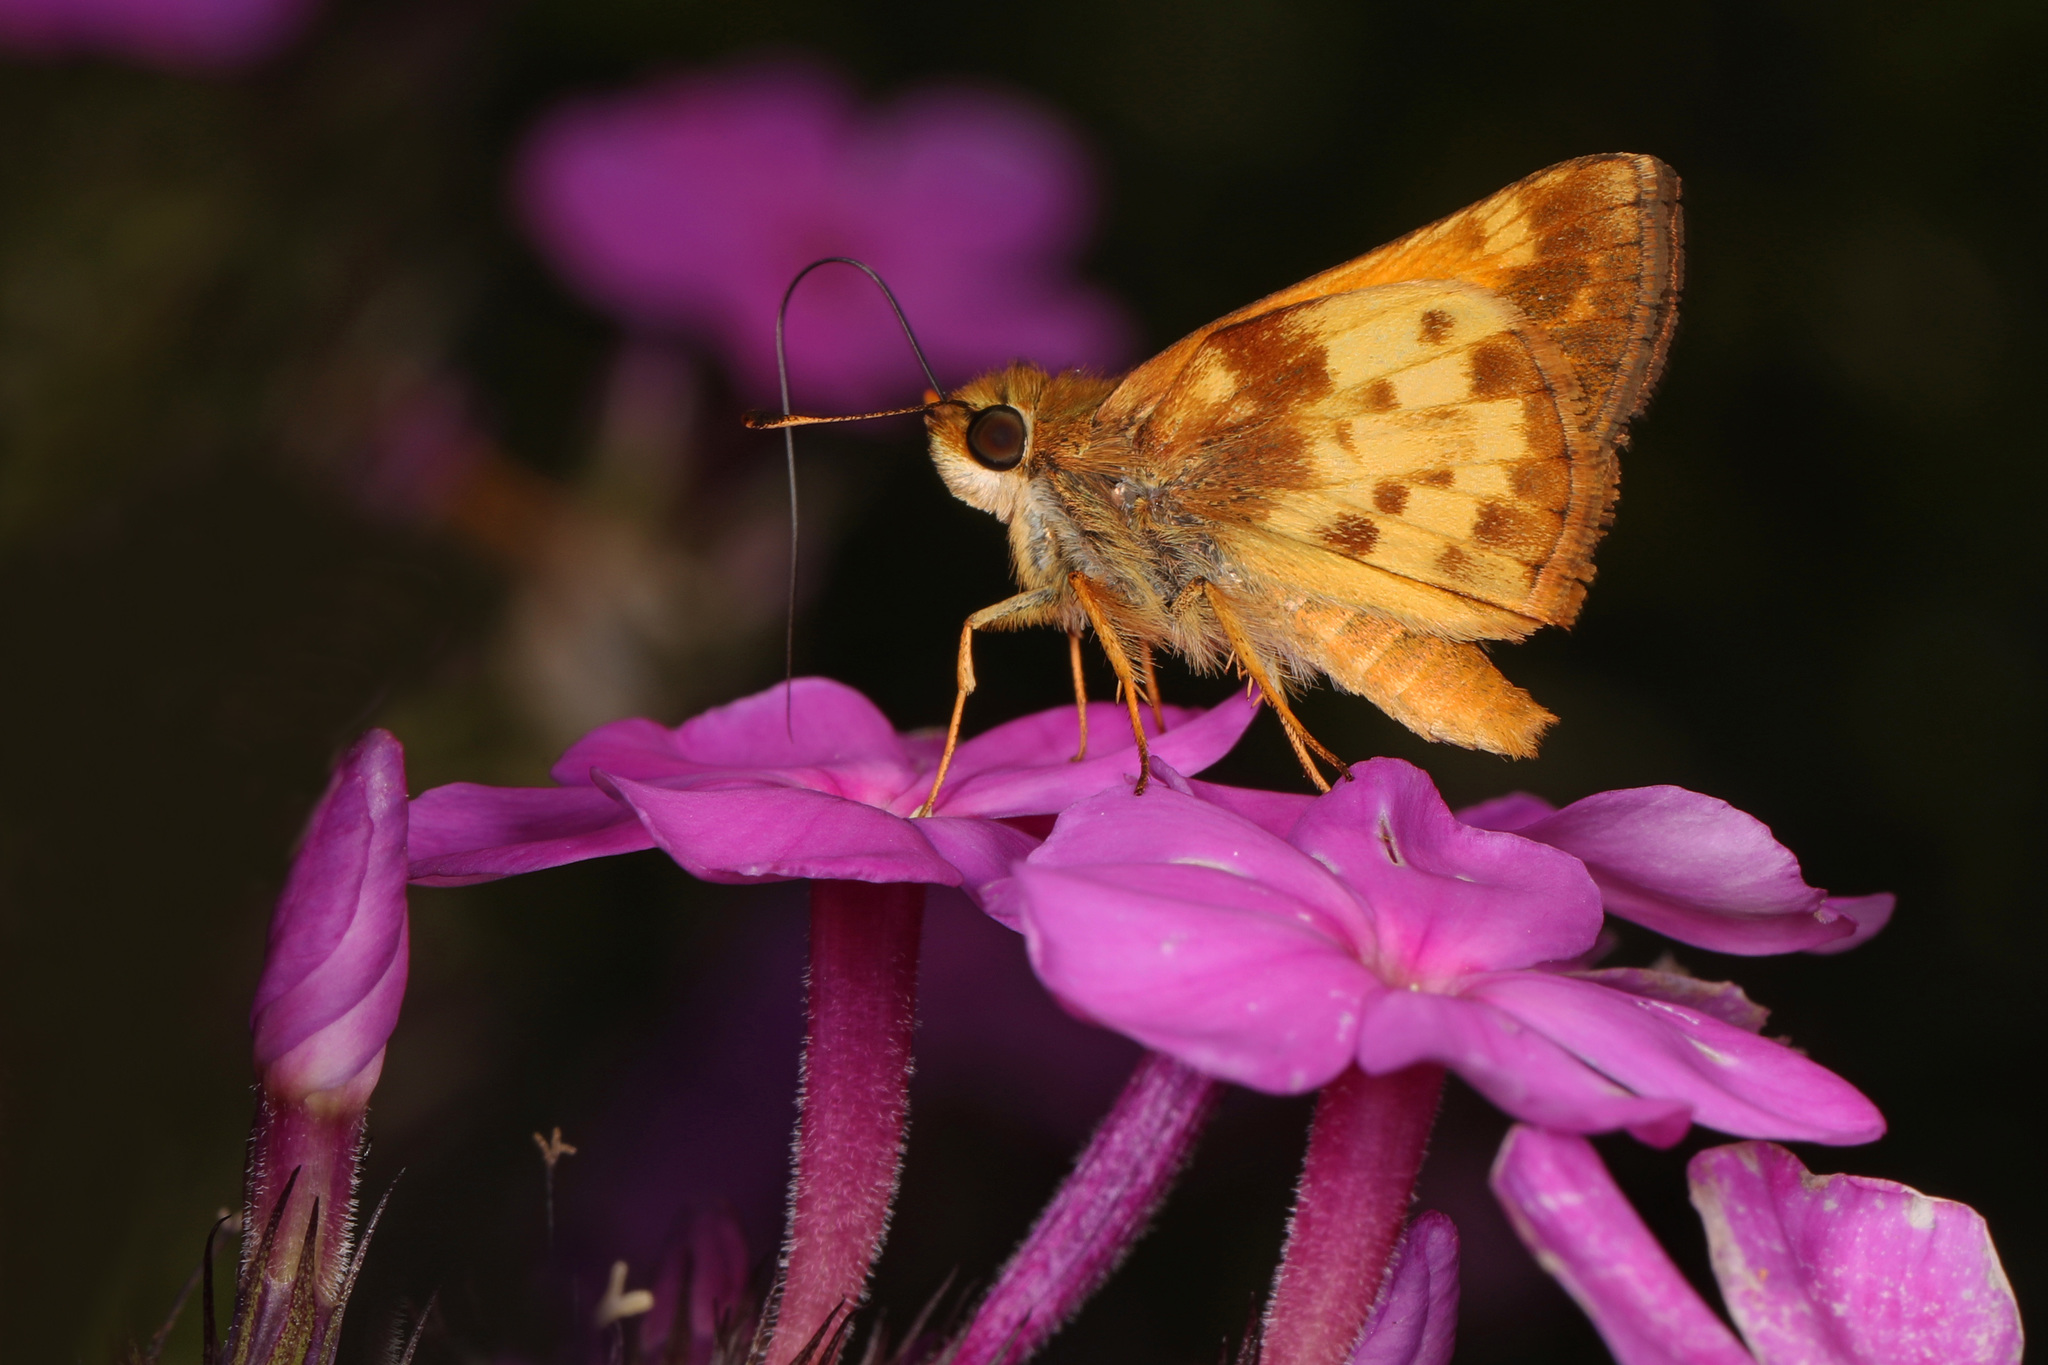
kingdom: Animalia
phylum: Arthropoda
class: Insecta
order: Lepidoptera
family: Hesperiidae
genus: Lon
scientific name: Lon zabulon
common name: Zabulon skipper
